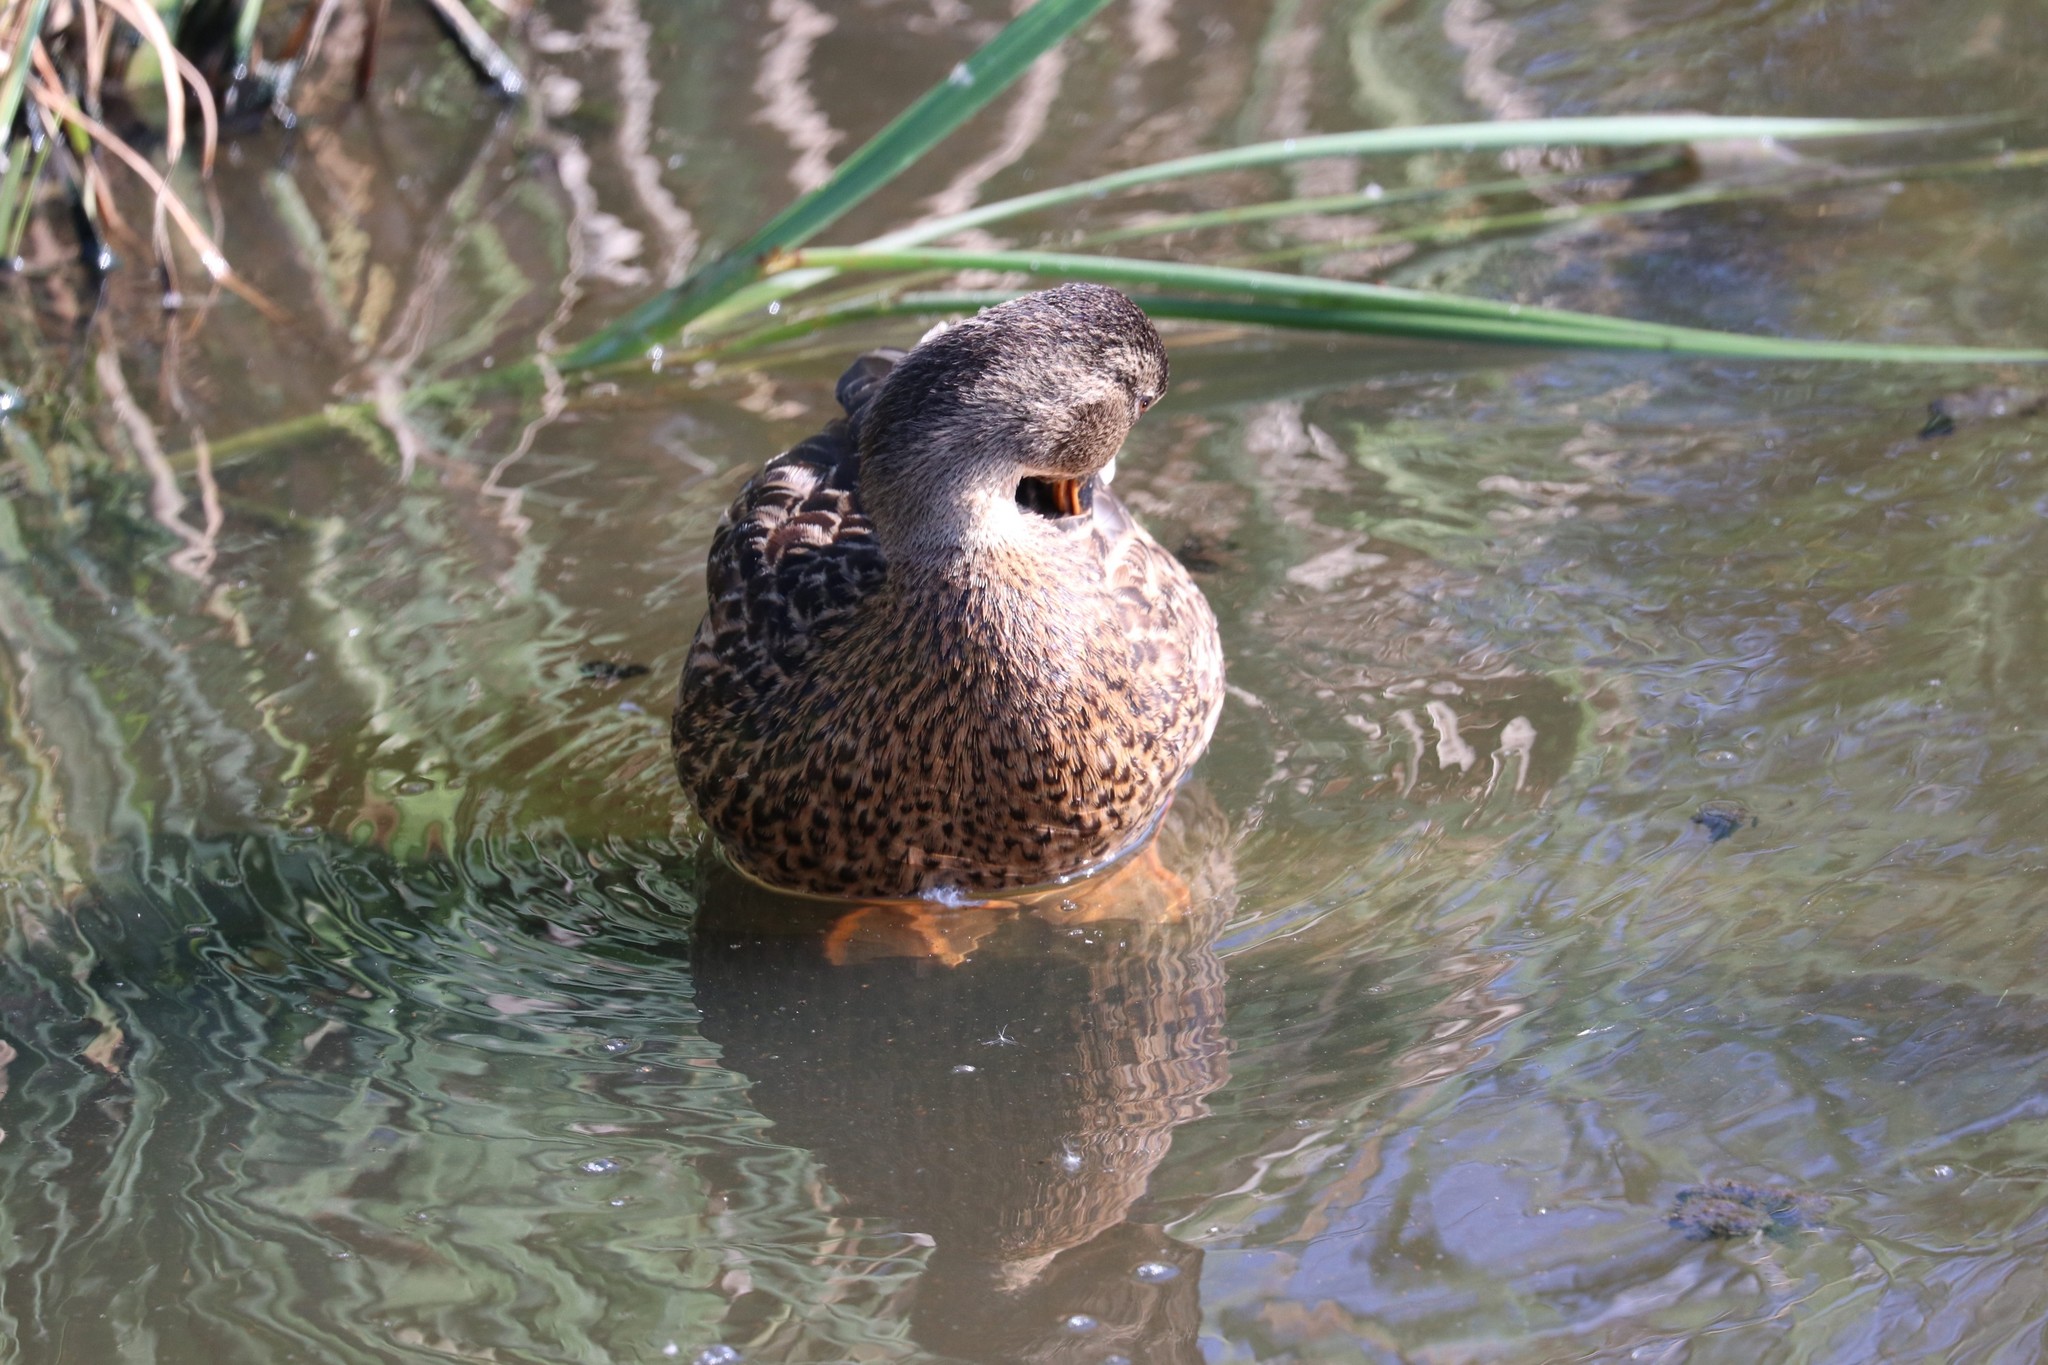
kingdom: Animalia
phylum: Chordata
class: Aves
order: Anseriformes
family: Anatidae
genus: Anas
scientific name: Anas platyrhynchos
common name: Mallard
